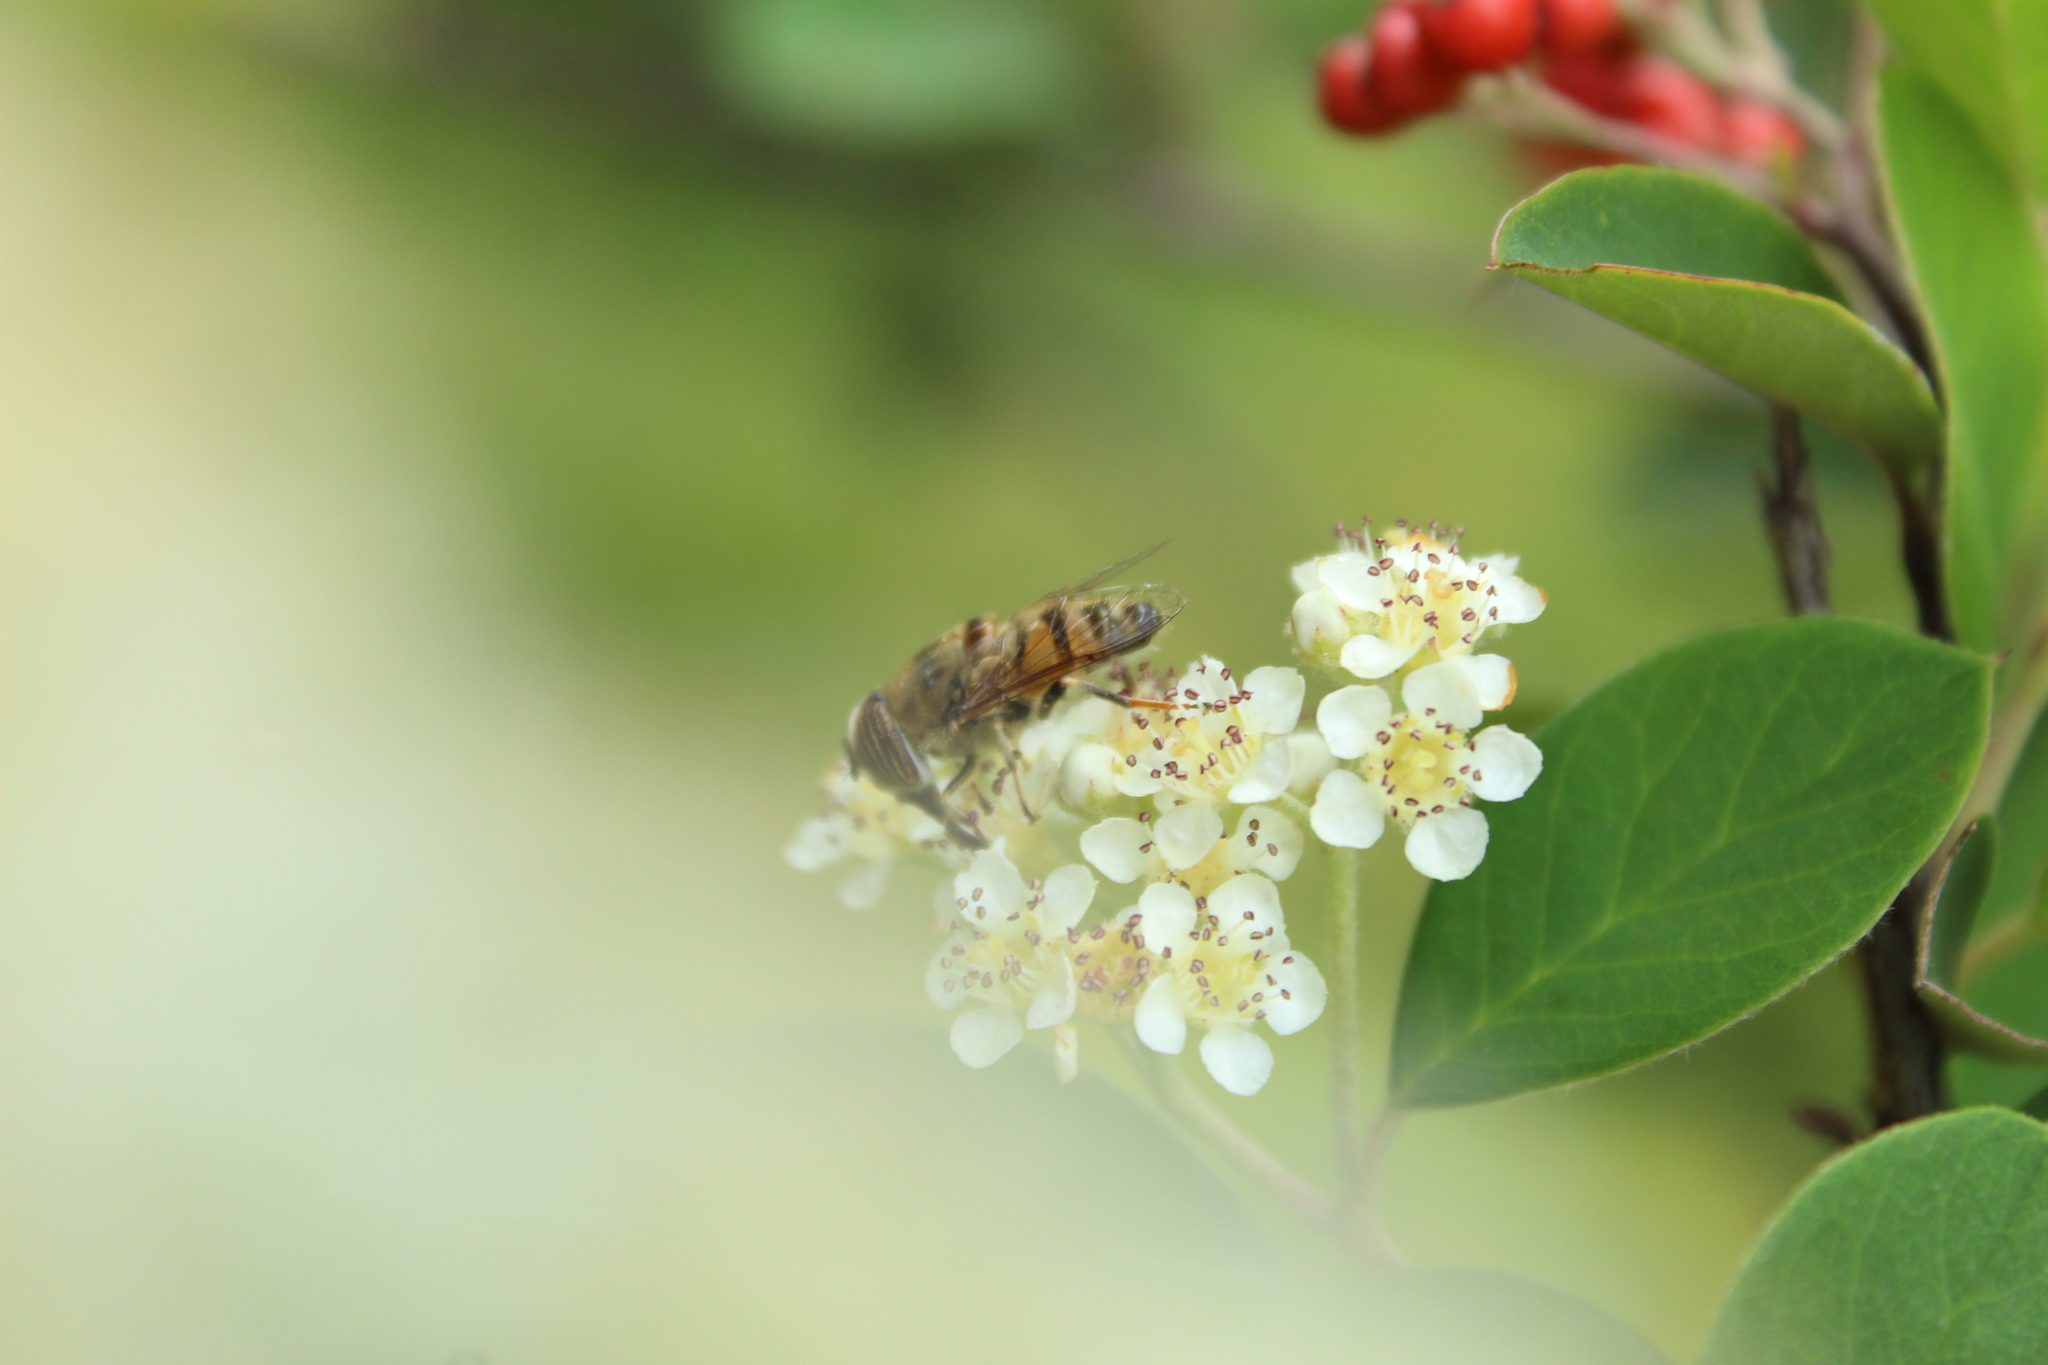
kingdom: Animalia
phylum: Arthropoda
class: Insecta
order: Diptera
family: Syrphidae
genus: Eristalinus
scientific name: Eristalinus taeniops
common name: Syrphid fly
